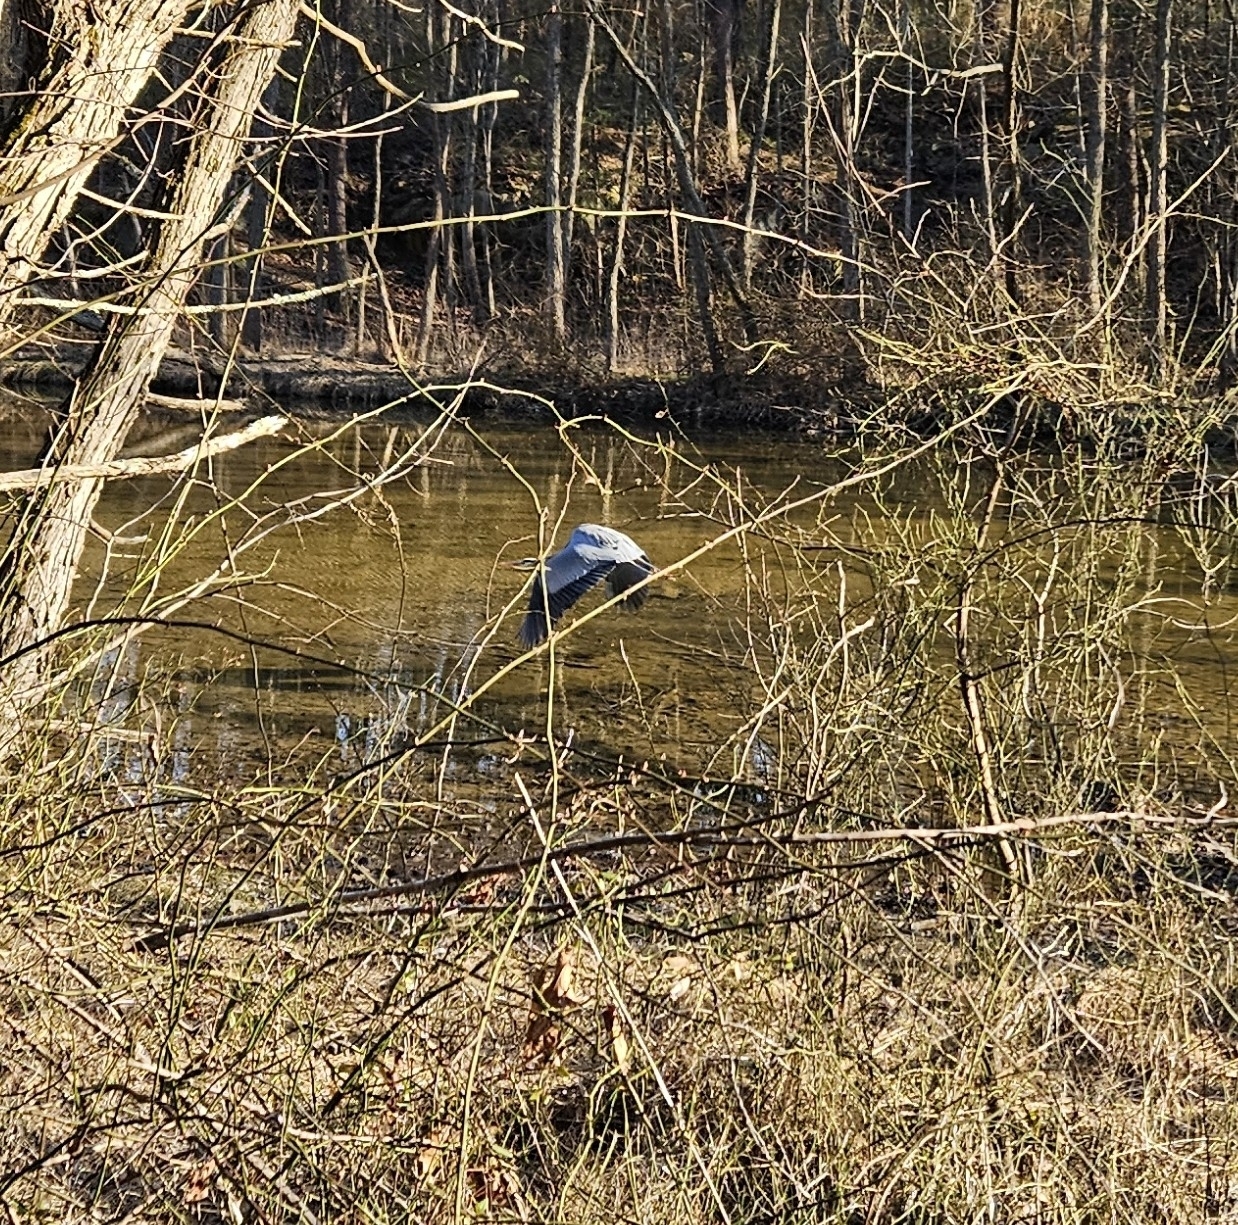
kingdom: Animalia
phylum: Chordata
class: Aves
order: Pelecaniformes
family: Ardeidae
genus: Ardea
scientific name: Ardea herodias
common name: Great blue heron
